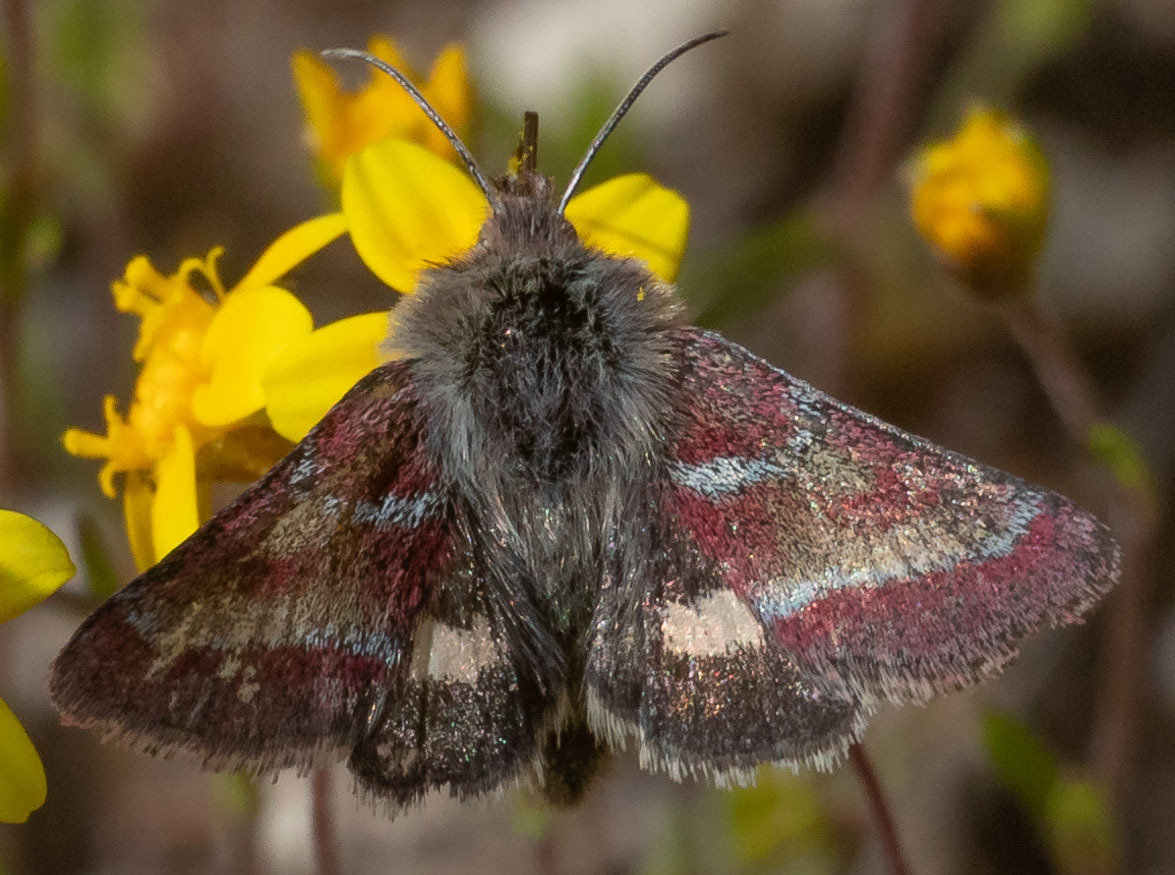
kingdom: Animalia
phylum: Arthropoda
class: Insecta
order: Lepidoptera
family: Noctuidae
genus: Schinia
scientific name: Schinia pulchripennis
